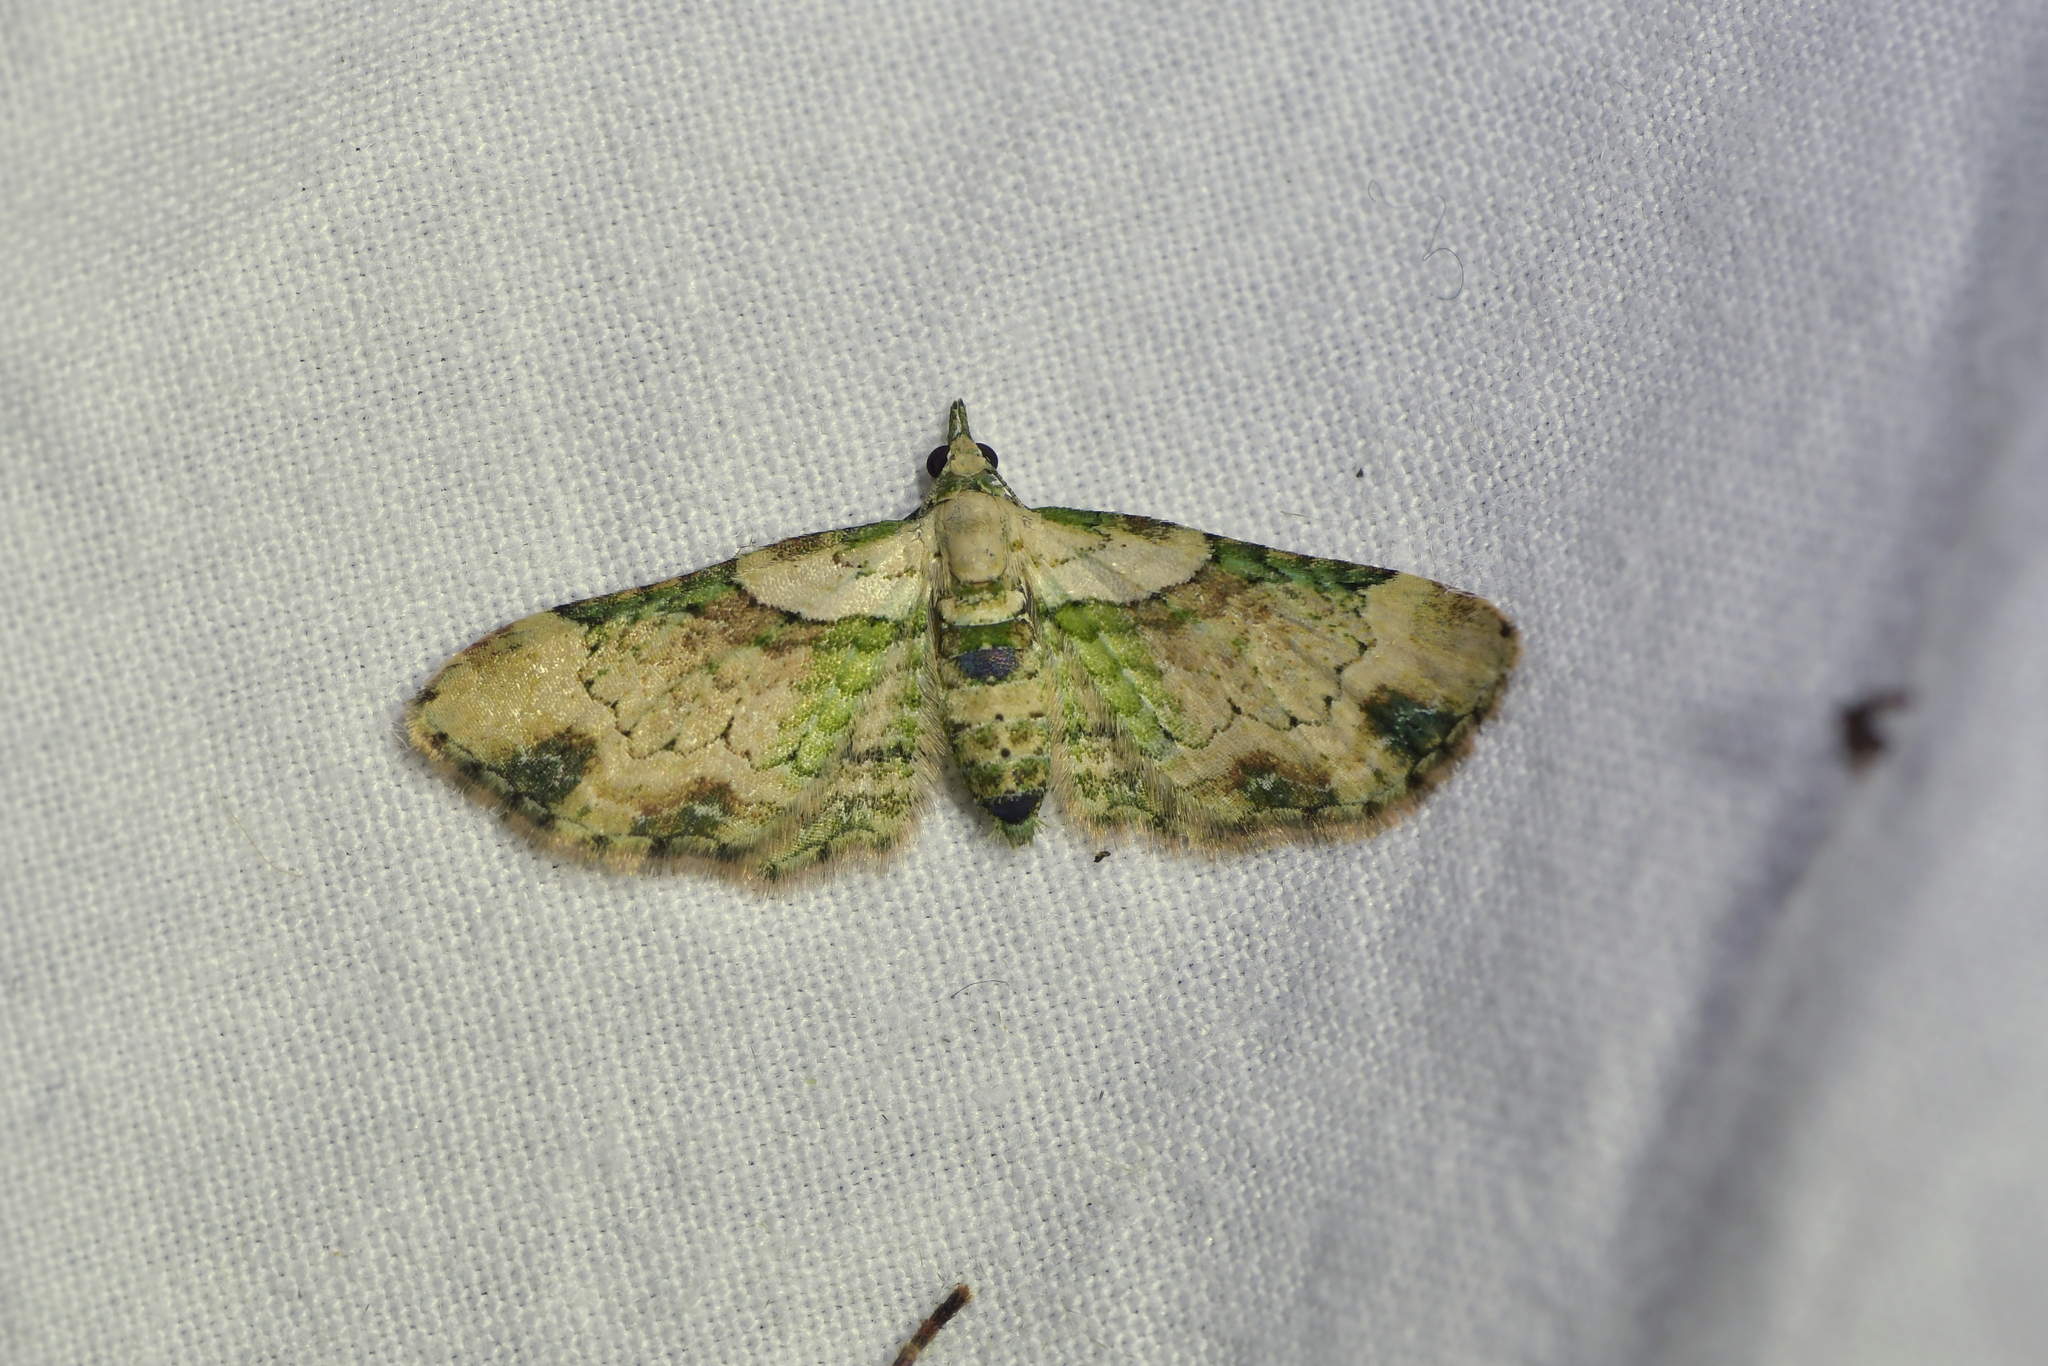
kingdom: Animalia
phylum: Arthropoda
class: Insecta
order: Lepidoptera
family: Geometridae
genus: Chloroclystis
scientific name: Chloroclystis
